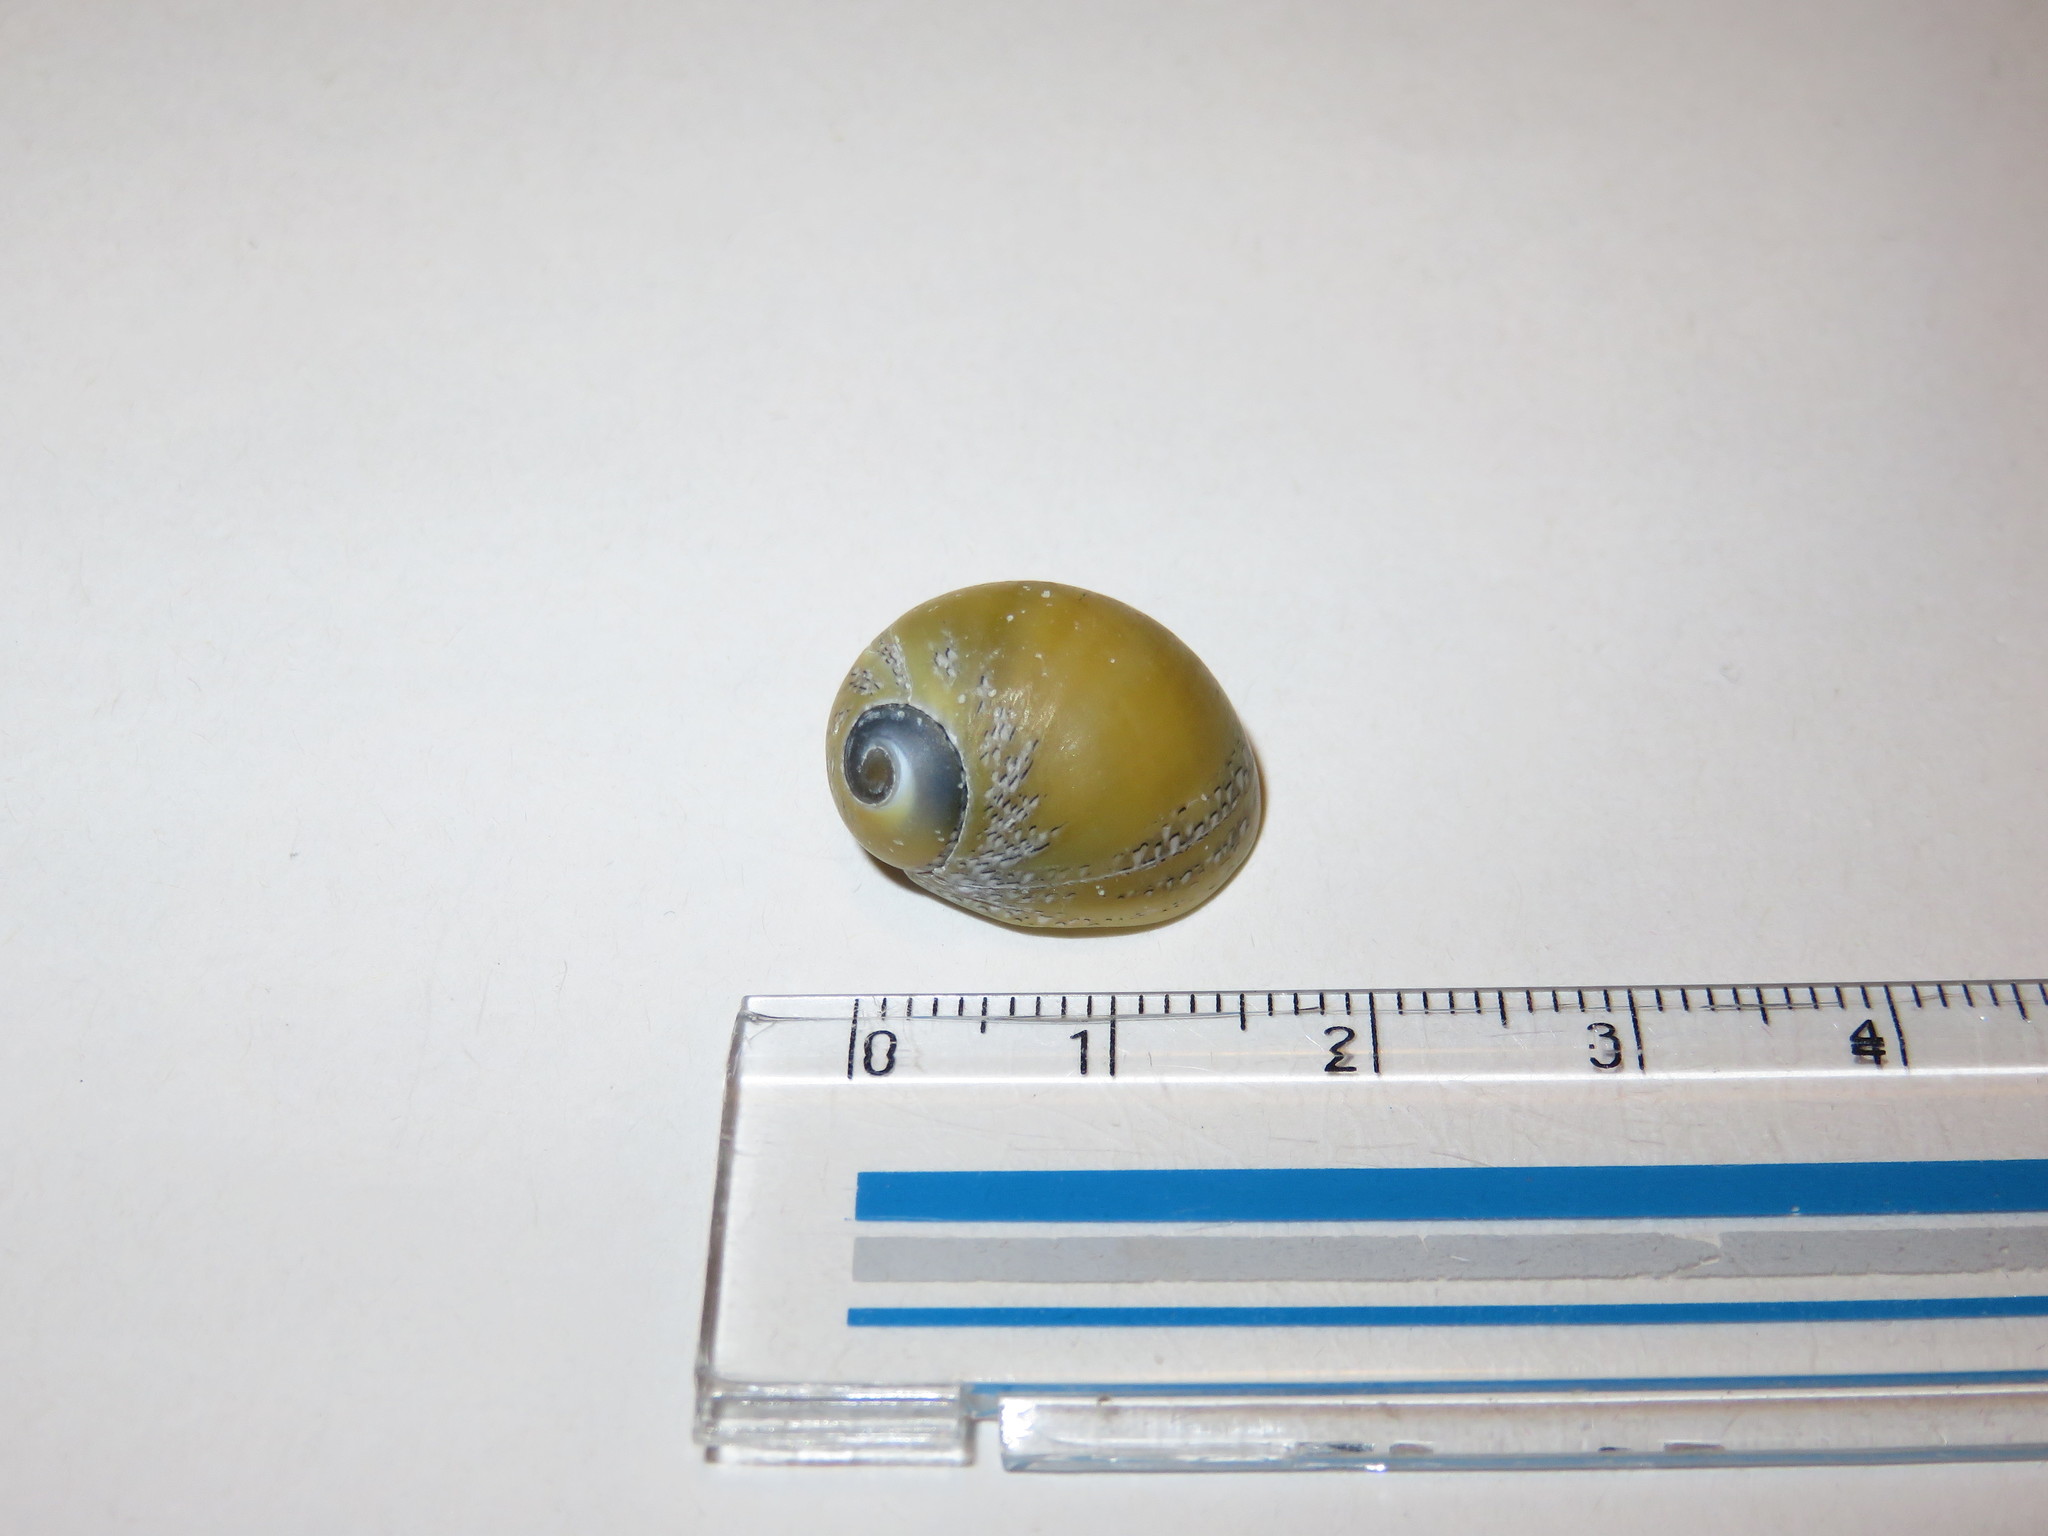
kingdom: Animalia
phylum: Mollusca
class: Gastropoda
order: Cycloneritida
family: Neritidae
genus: Nerita
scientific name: Nerita japonica
